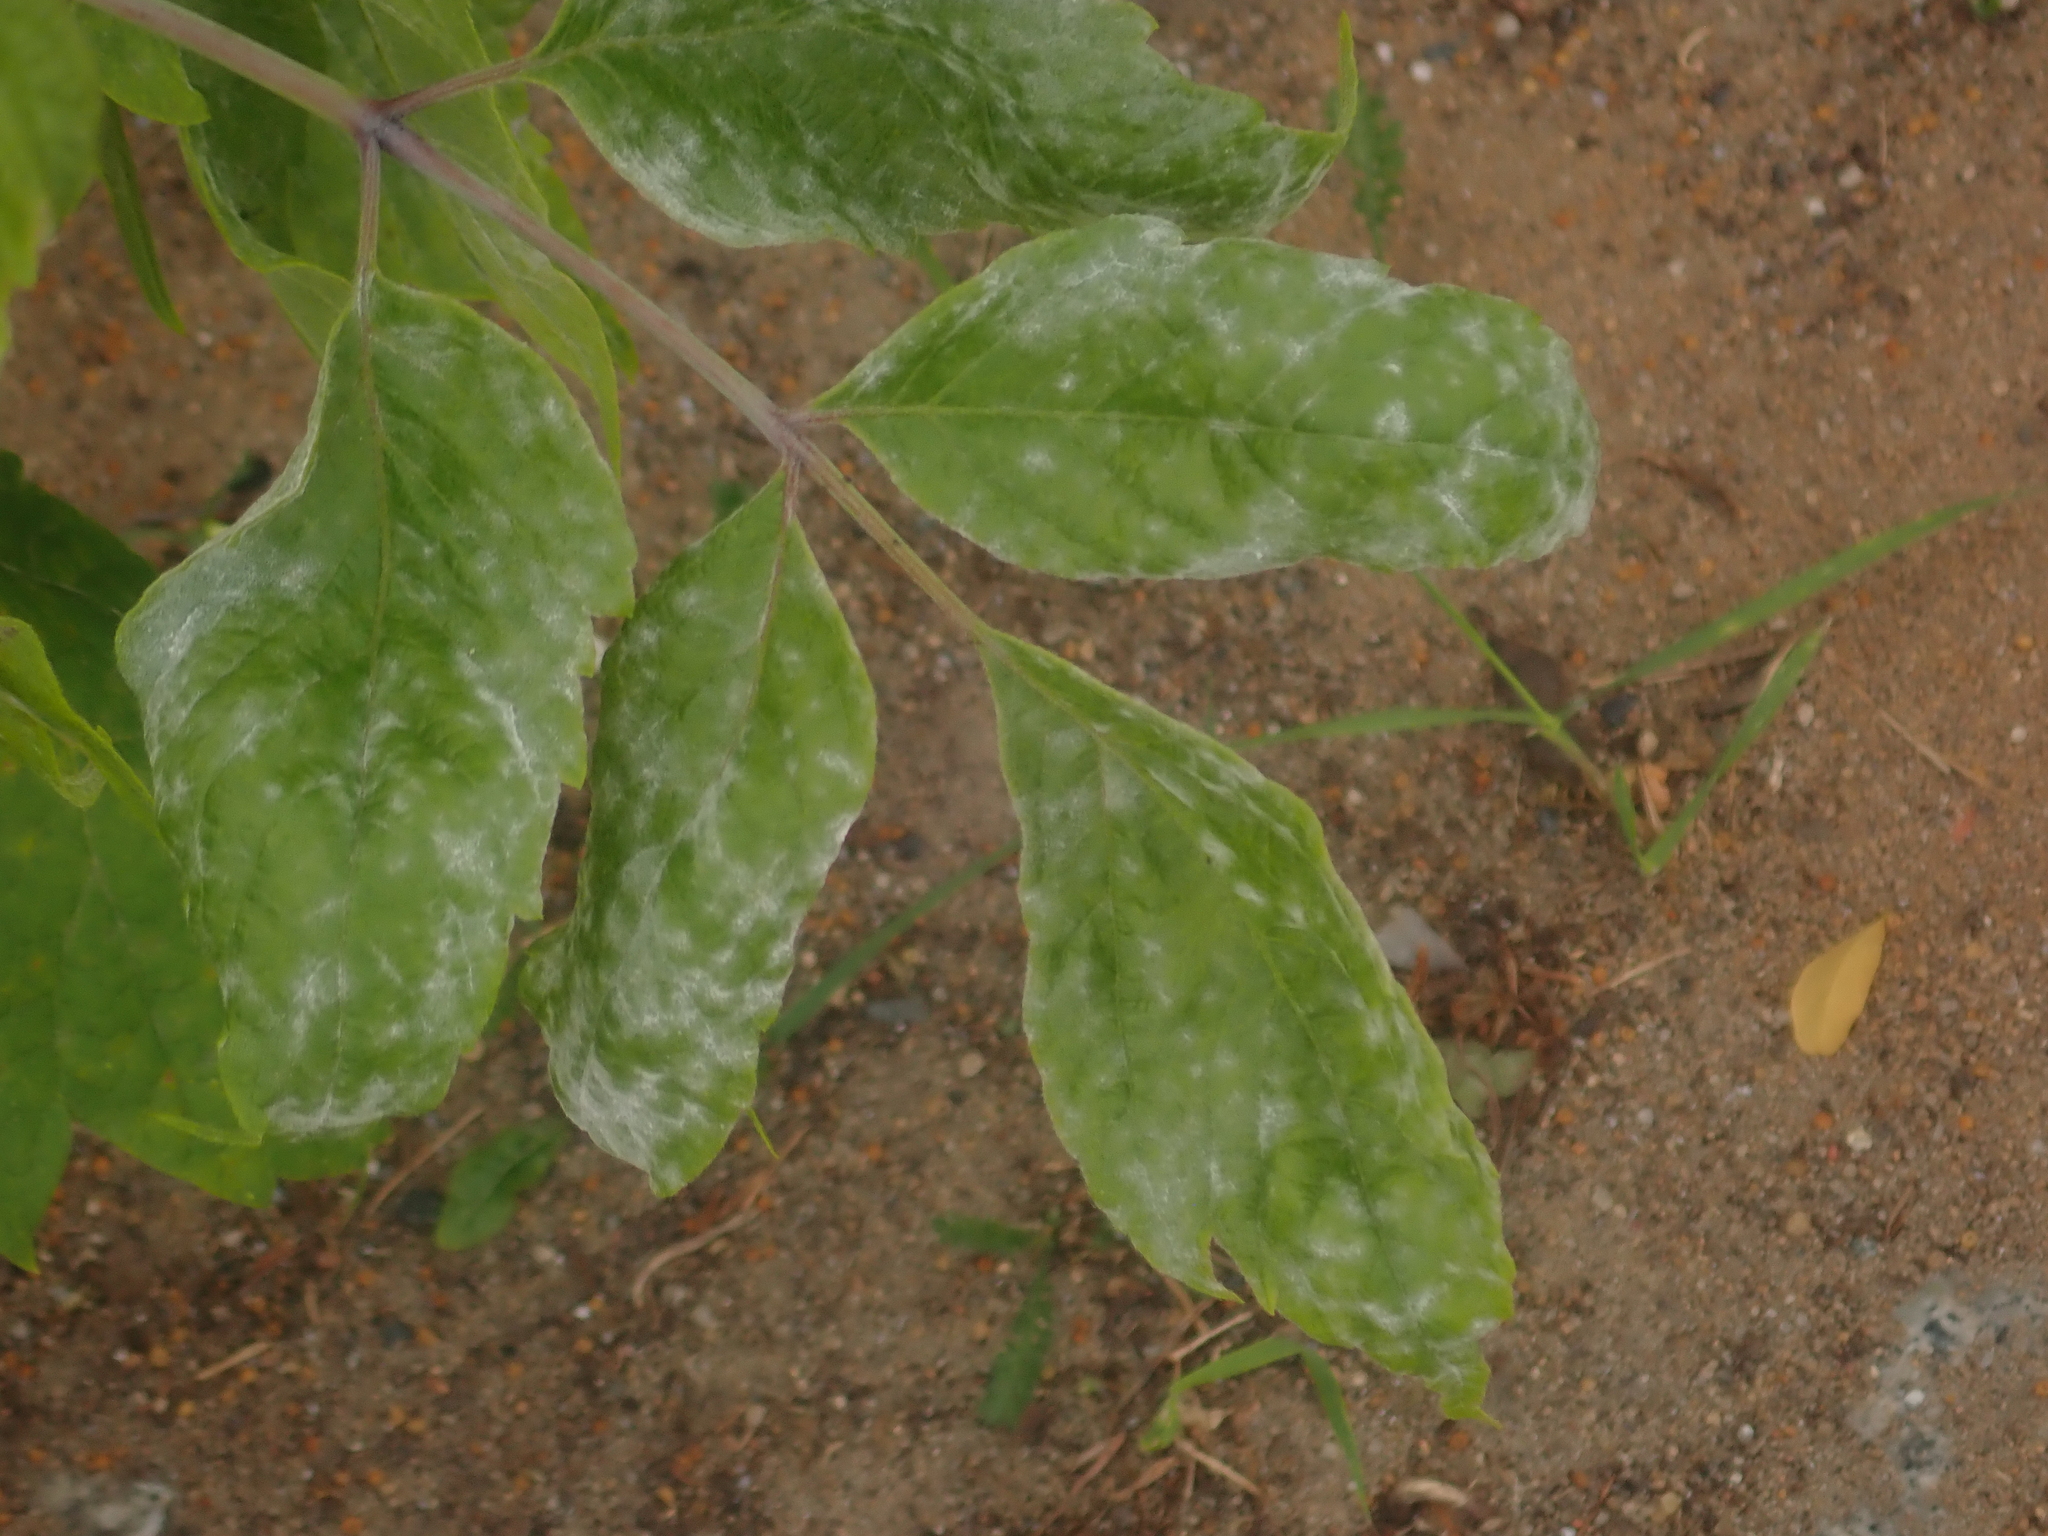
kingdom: Plantae
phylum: Tracheophyta
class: Magnoliopsida
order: Sapindales
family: Sapindaceae
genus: Acer
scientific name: Acer negundo
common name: Ashleaf maple
